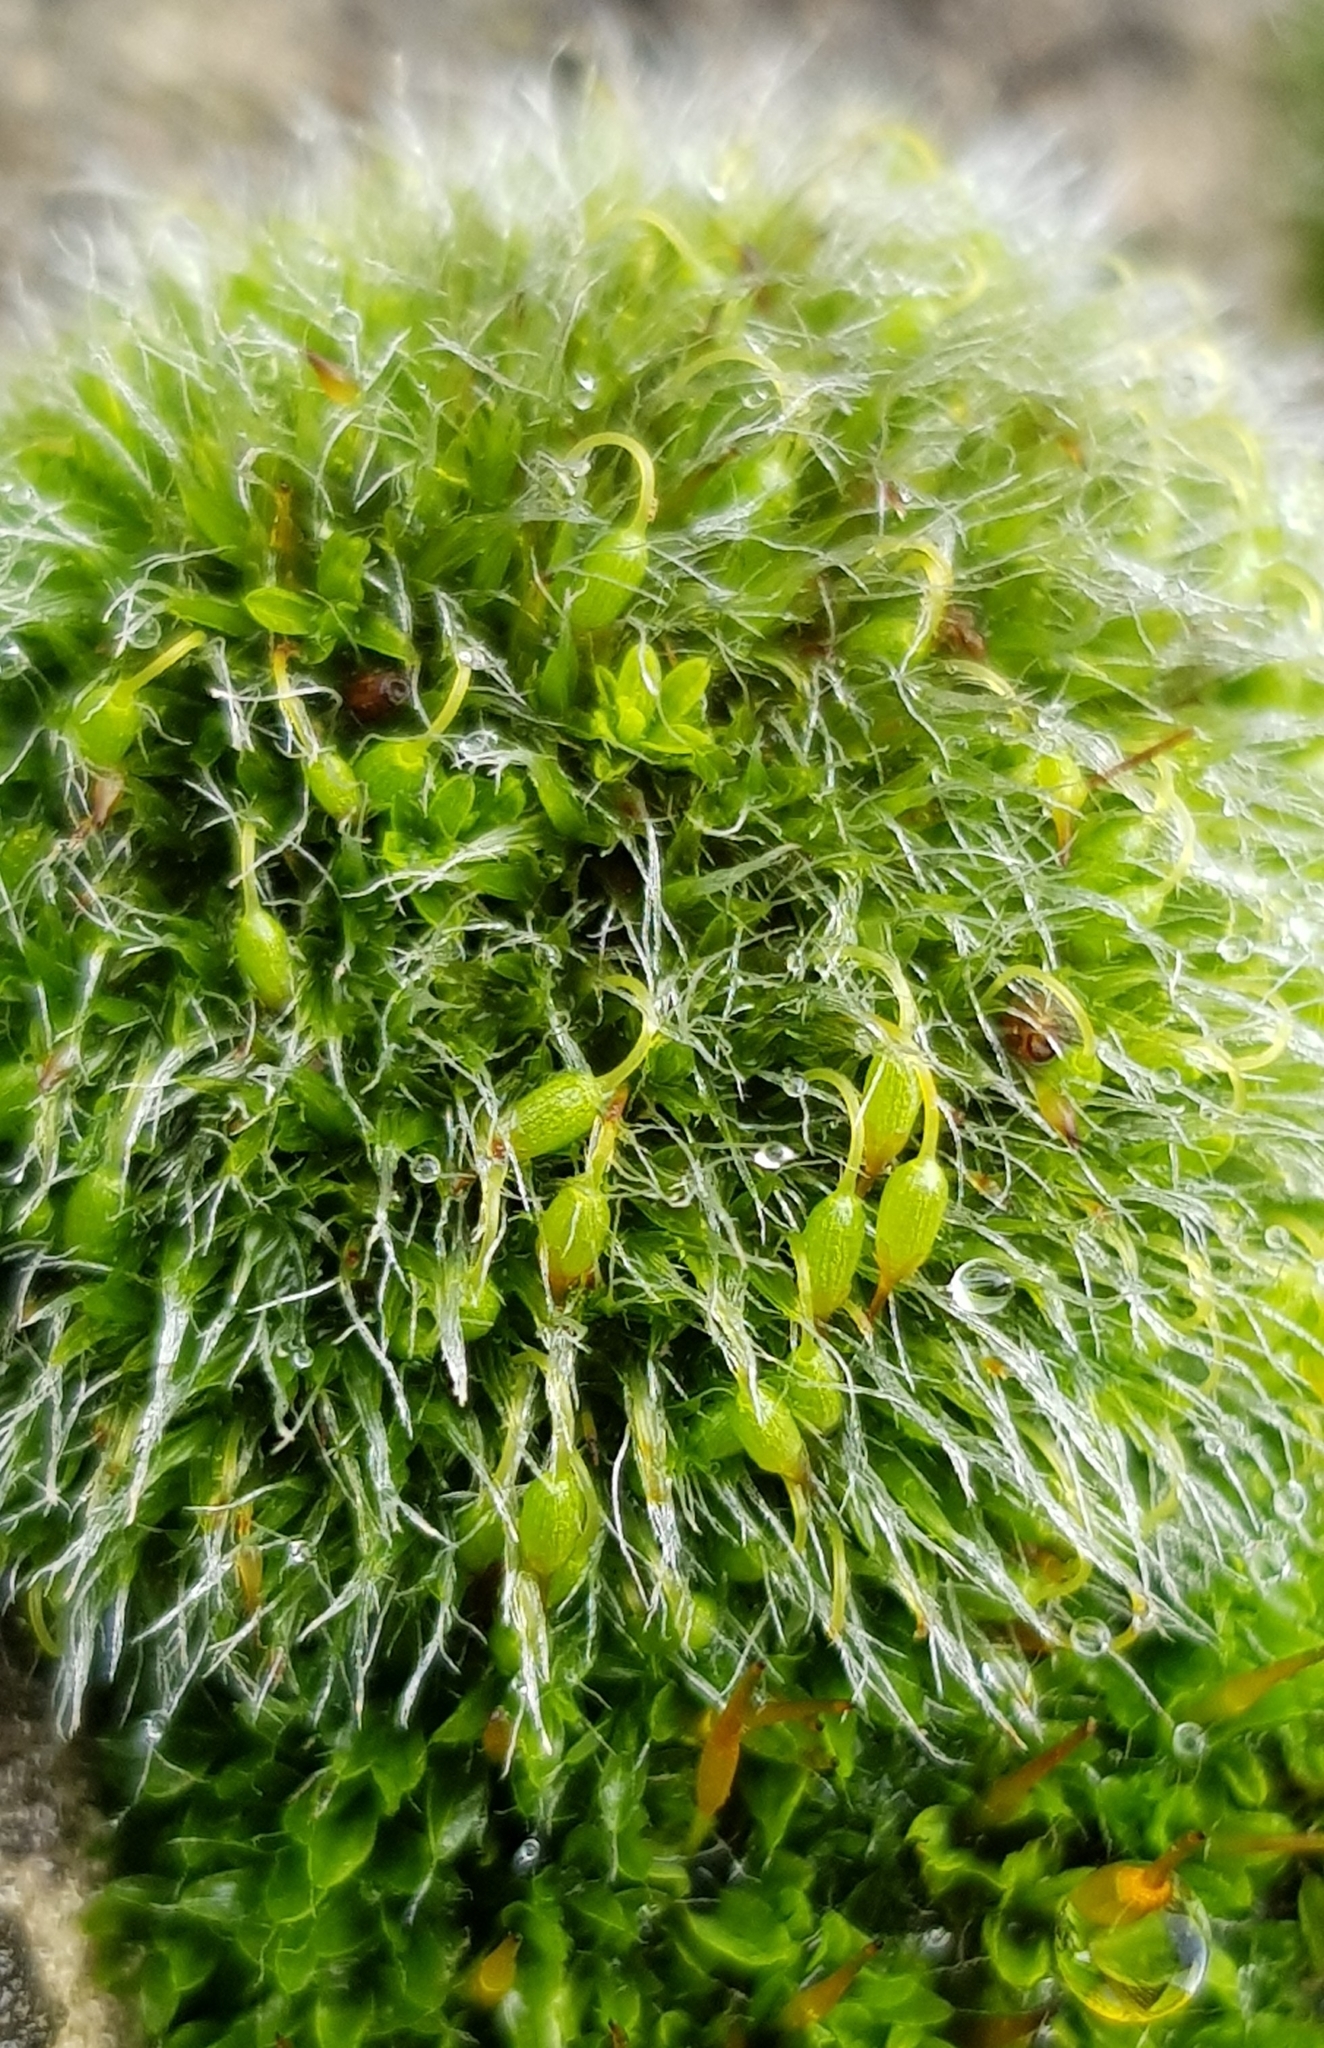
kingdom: Plantae
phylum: Bryophyta
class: Bryopsida
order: Grimmiales
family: Grimmiaceae
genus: Grimmia
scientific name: Grimmia pulvinata
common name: Grey-cushioned grimmia
